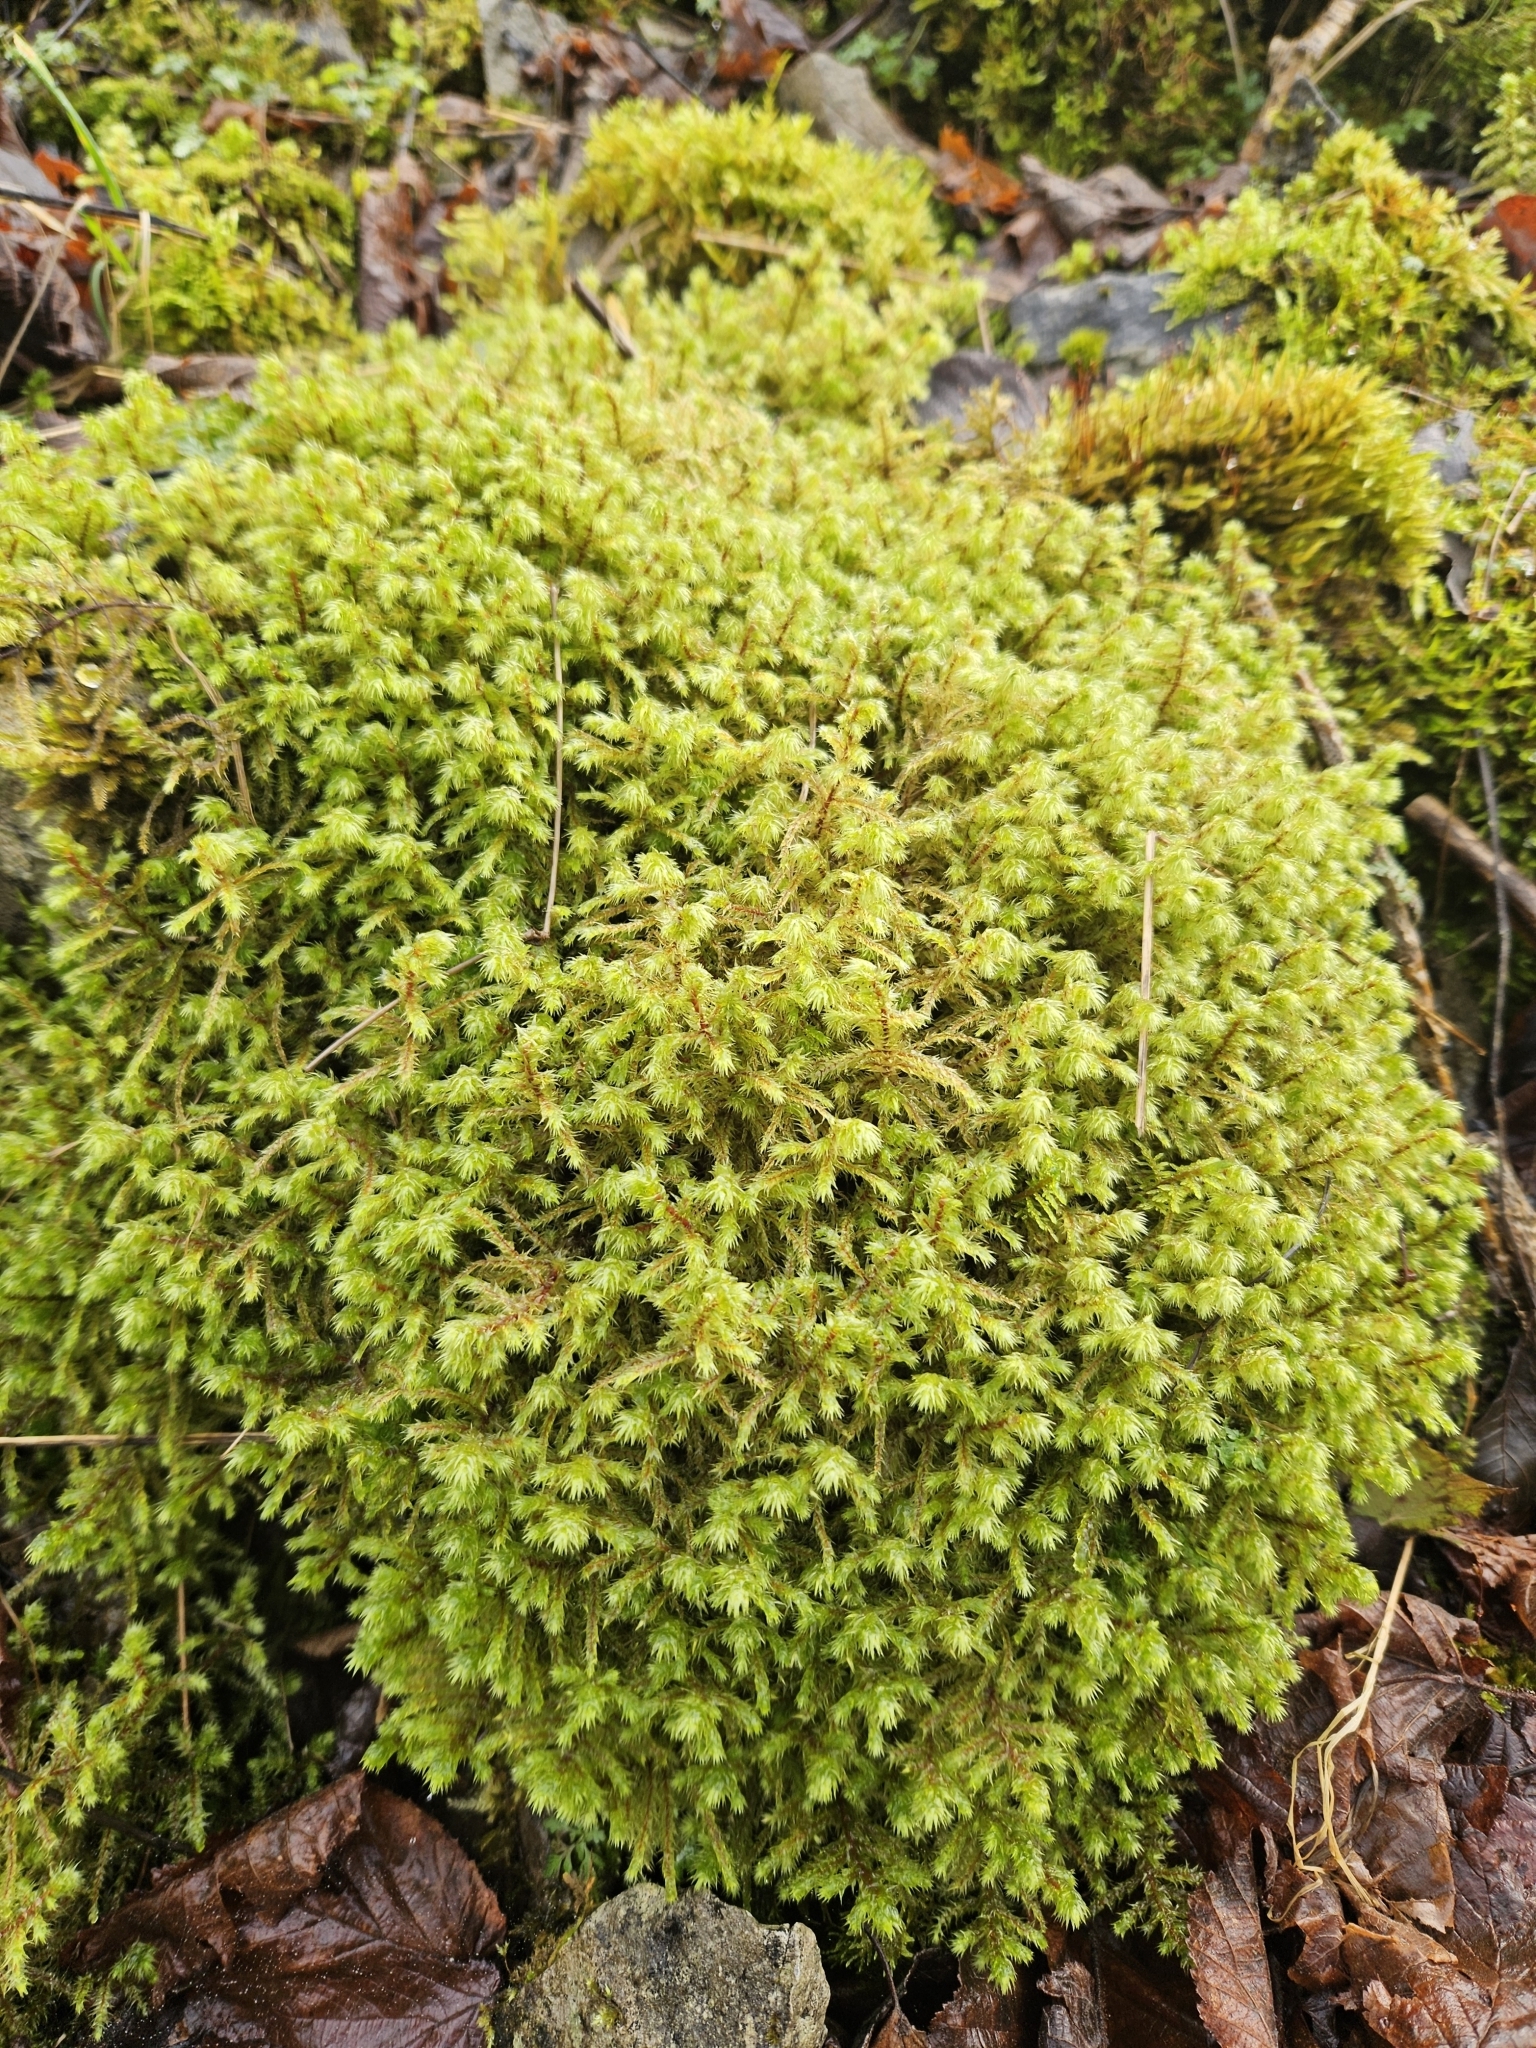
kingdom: Plantae
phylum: Bryophyta
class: Bryopsida
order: Hypnales
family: Hylocomiaceae
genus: Hylocomiadelphus
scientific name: Hylocomiadelphus triquetrus
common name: Rough goose neck moss
